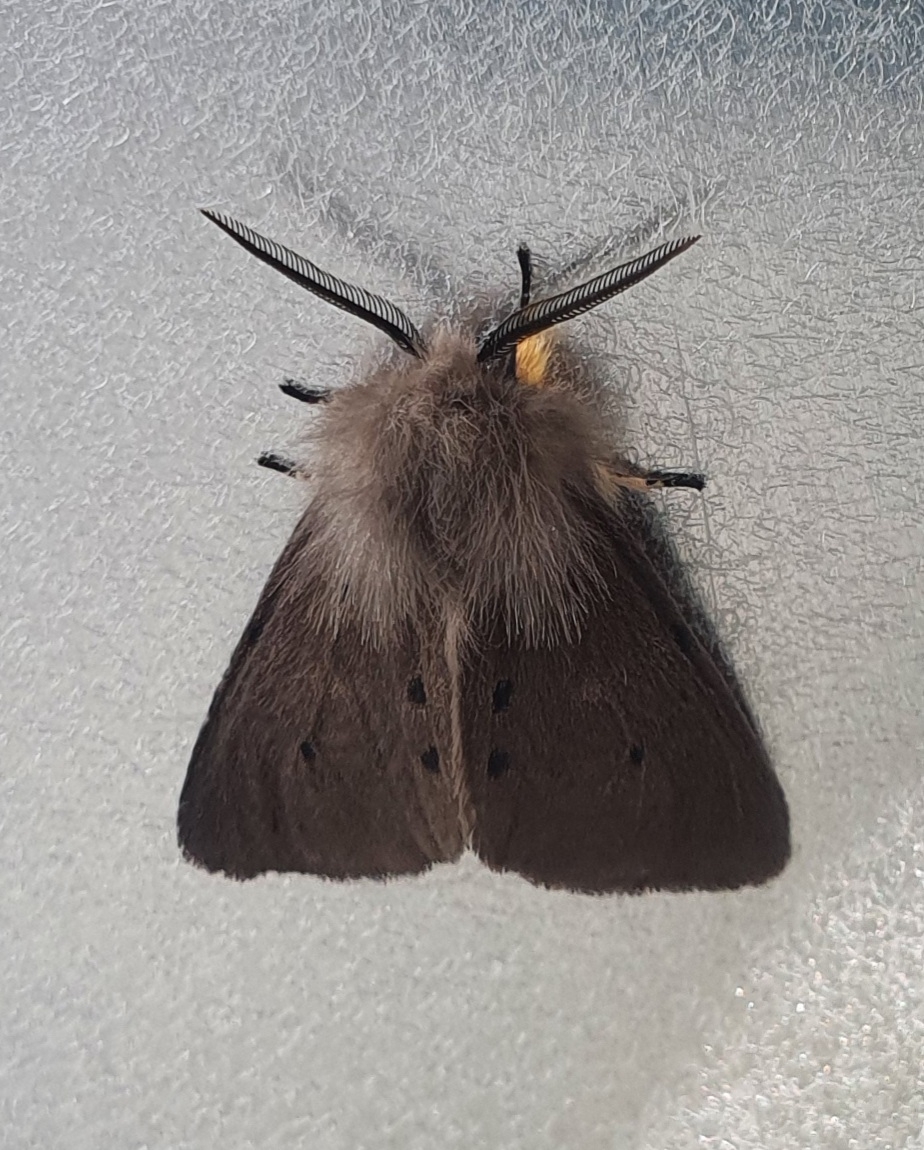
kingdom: Animalia
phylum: Arthropoda
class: Insecta
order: Lepidoptera
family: Erebidae
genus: Diaphora
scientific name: Diaphora mendica
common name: Muslin moth
